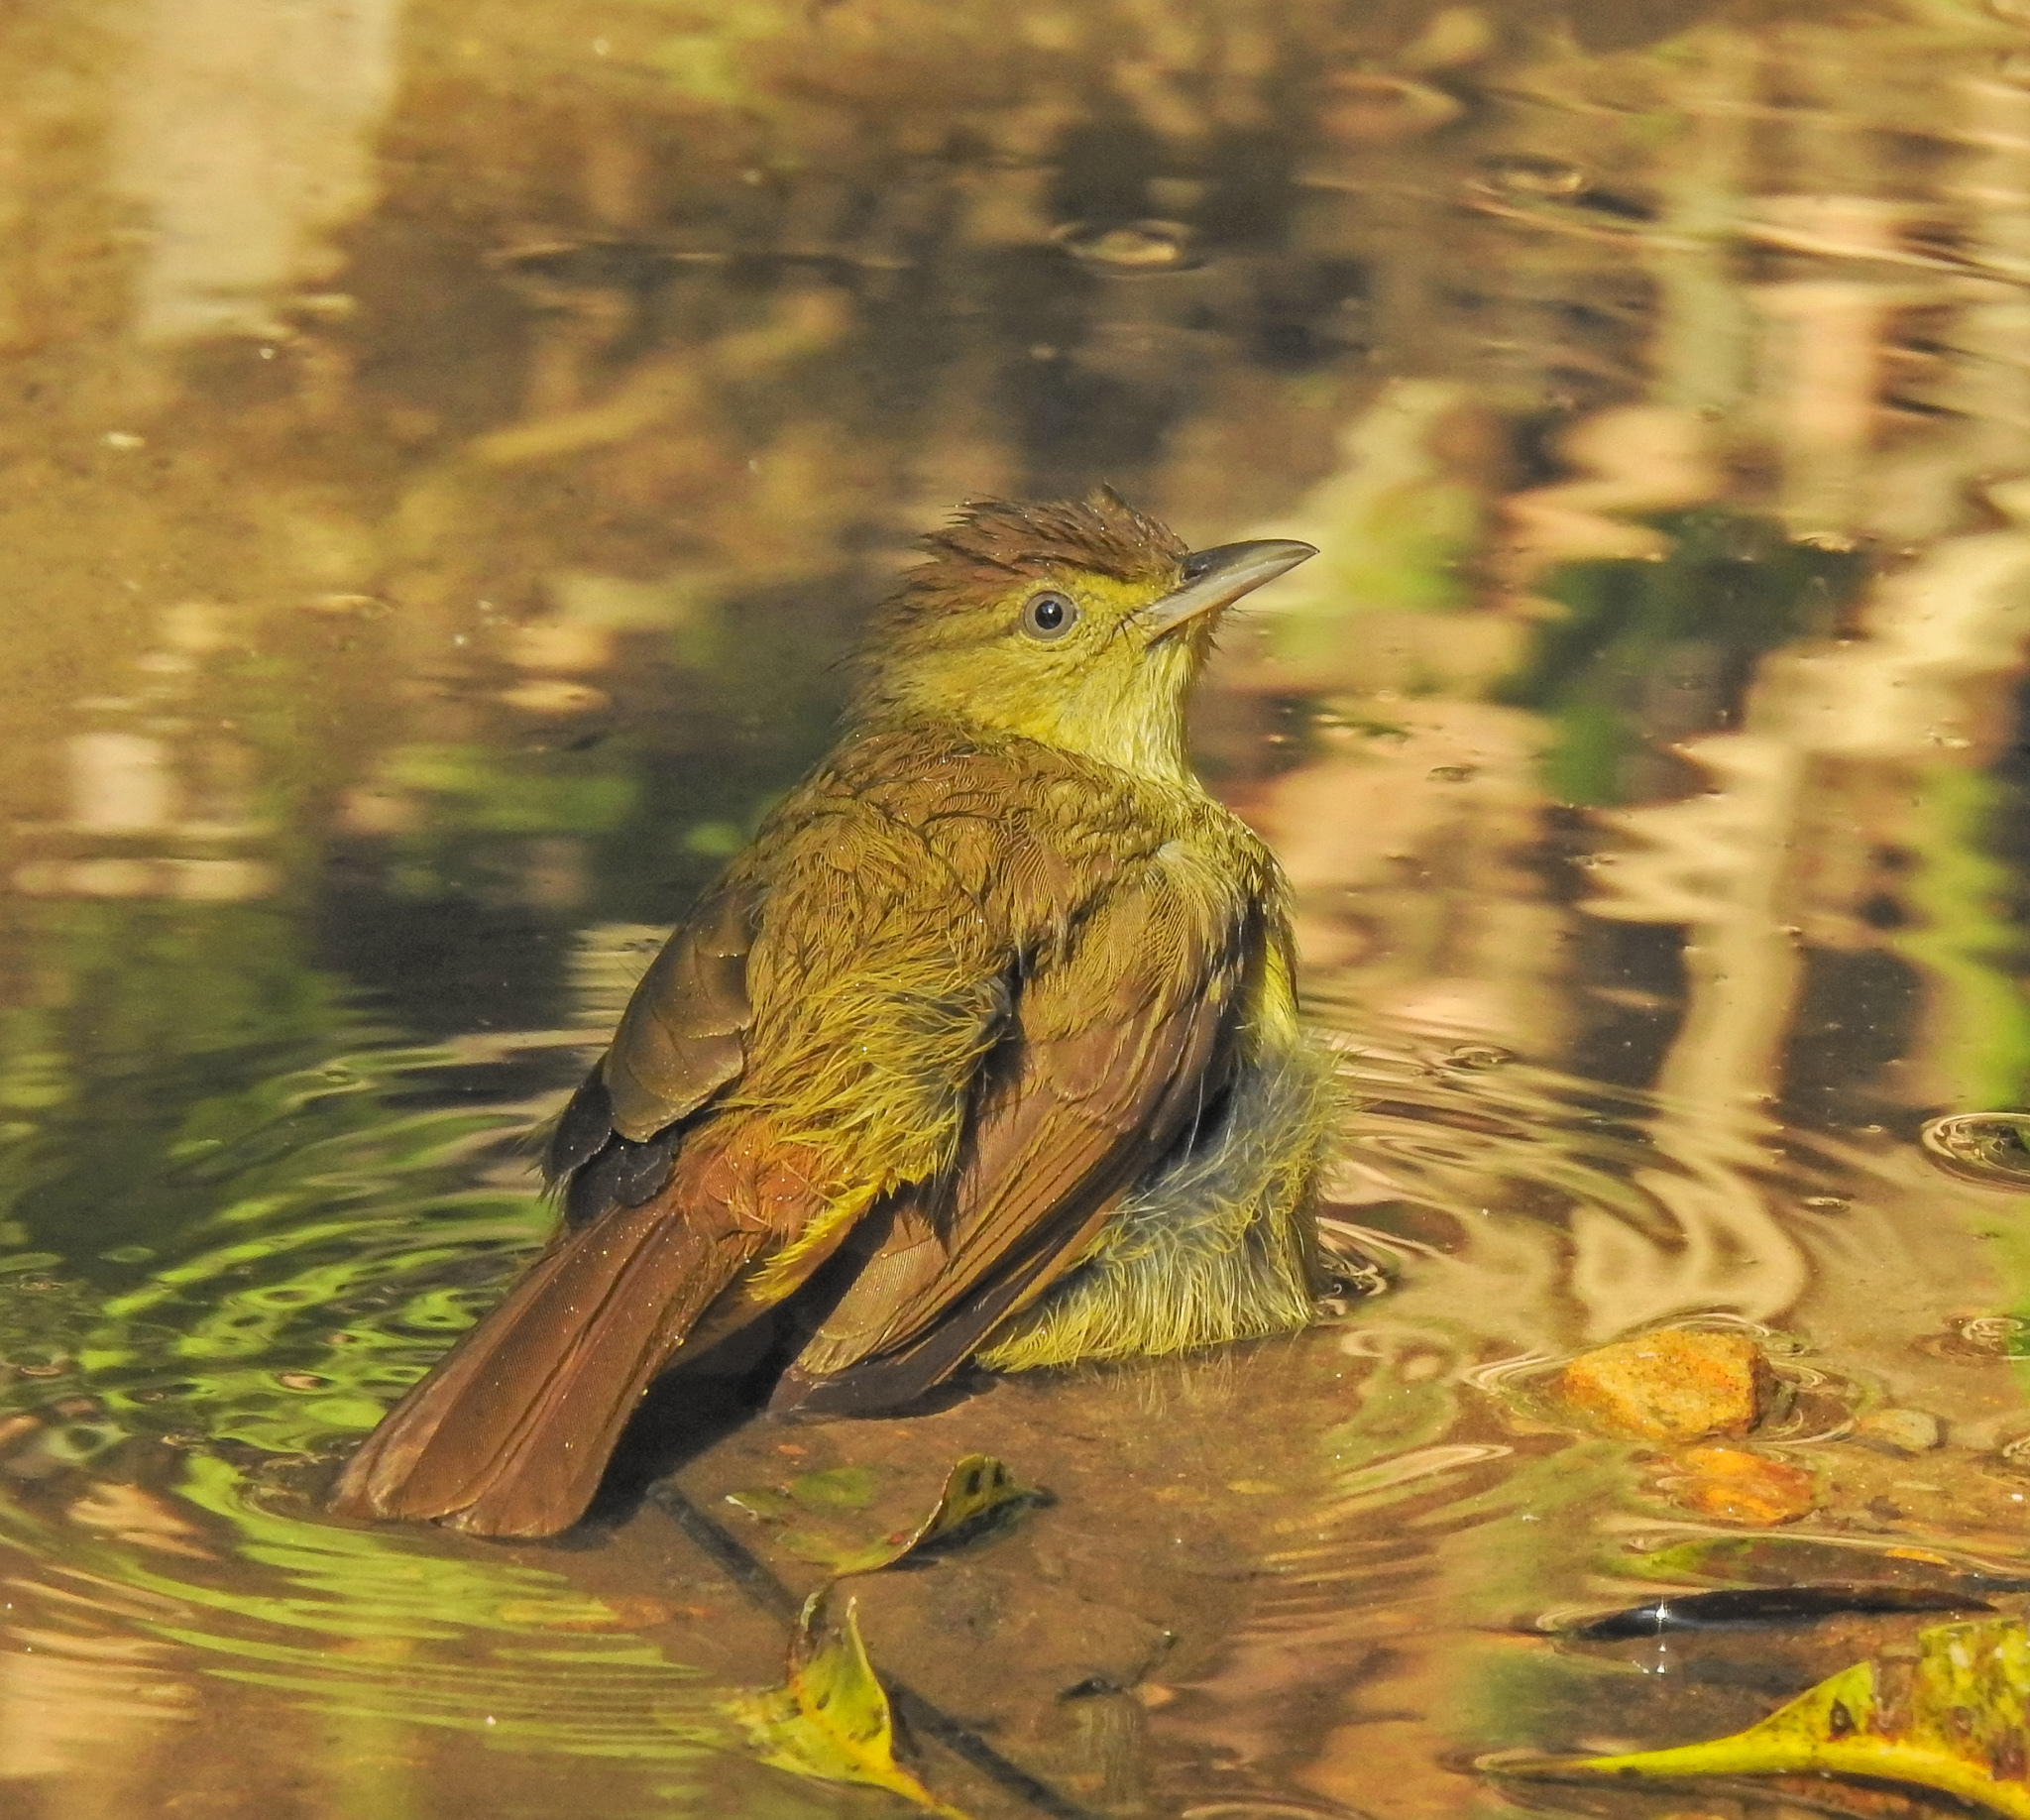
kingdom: Animalia
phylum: Chordata
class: Aves
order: Passeriformes
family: Pycnonotidae
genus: Iole
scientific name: Iole virescens
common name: Olive bulbul
